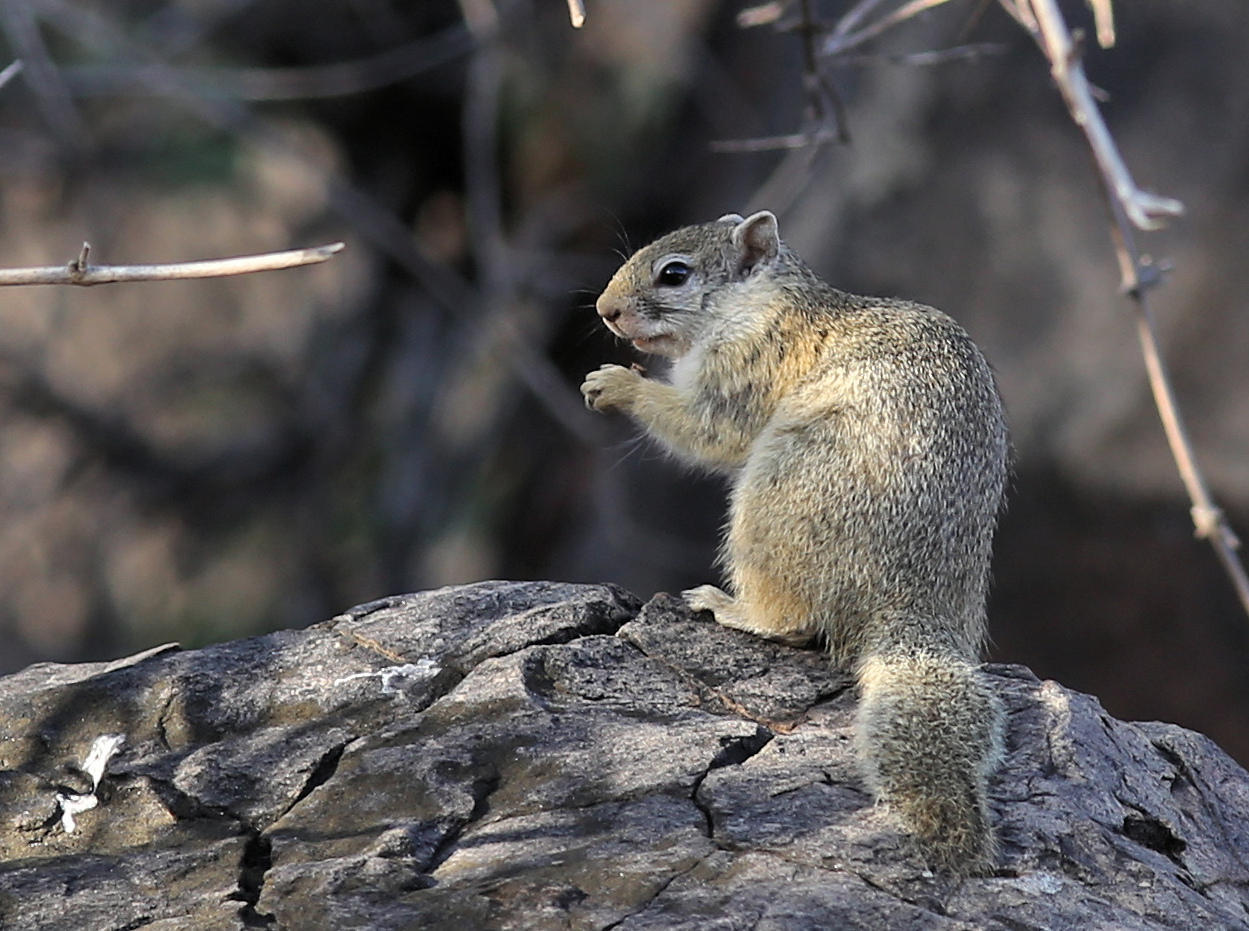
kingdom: Animalia
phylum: Chordata
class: Mammalia
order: Rodentia
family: Sciuridae
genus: Paraxerus
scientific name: Paraxerus cepapi
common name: Smith's bush squirrel
